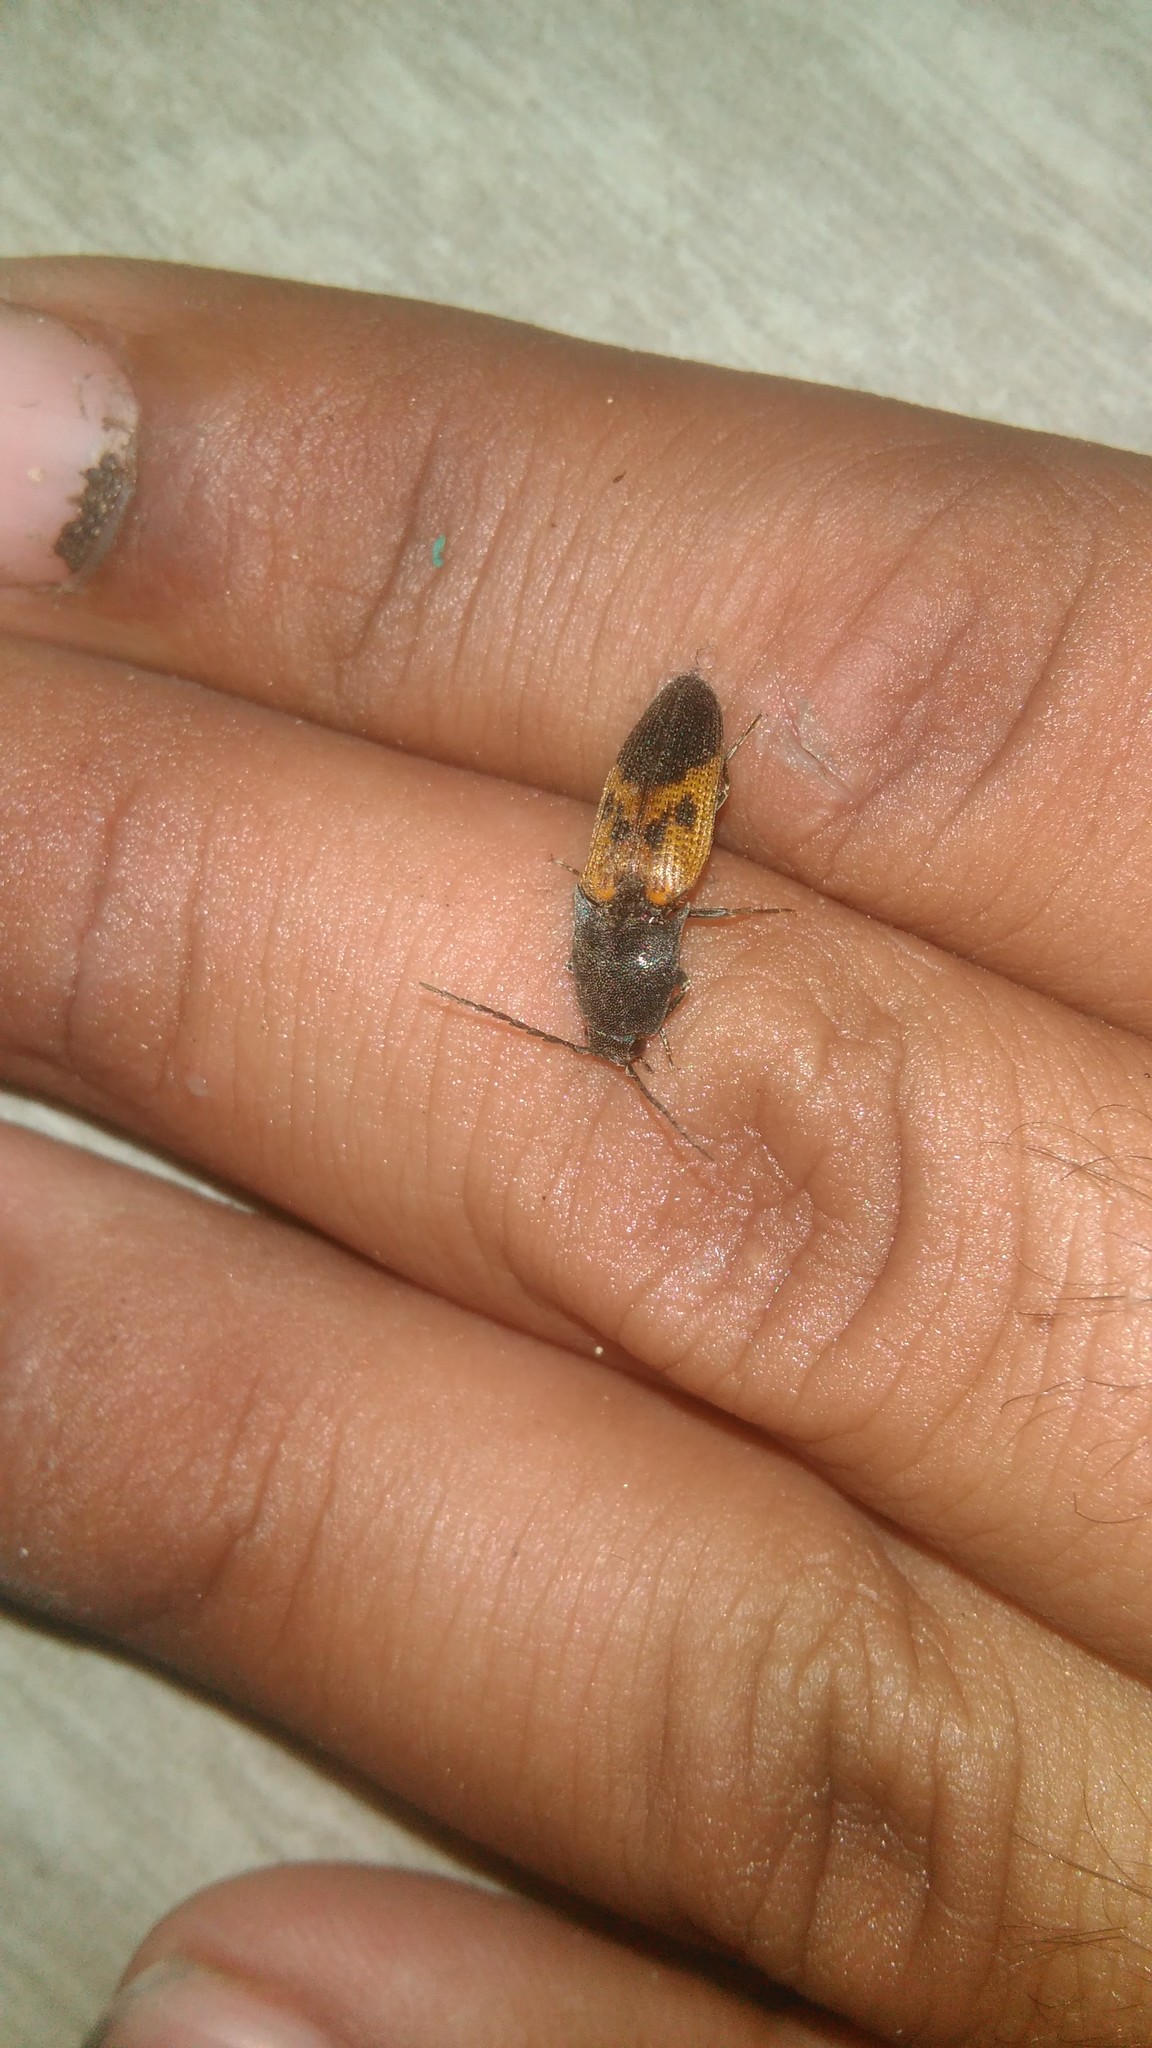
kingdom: Animalia
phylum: Arthropoda
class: Insecta
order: Coleoptera
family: Elateridae
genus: Monocrepidius
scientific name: Monocrepidius
